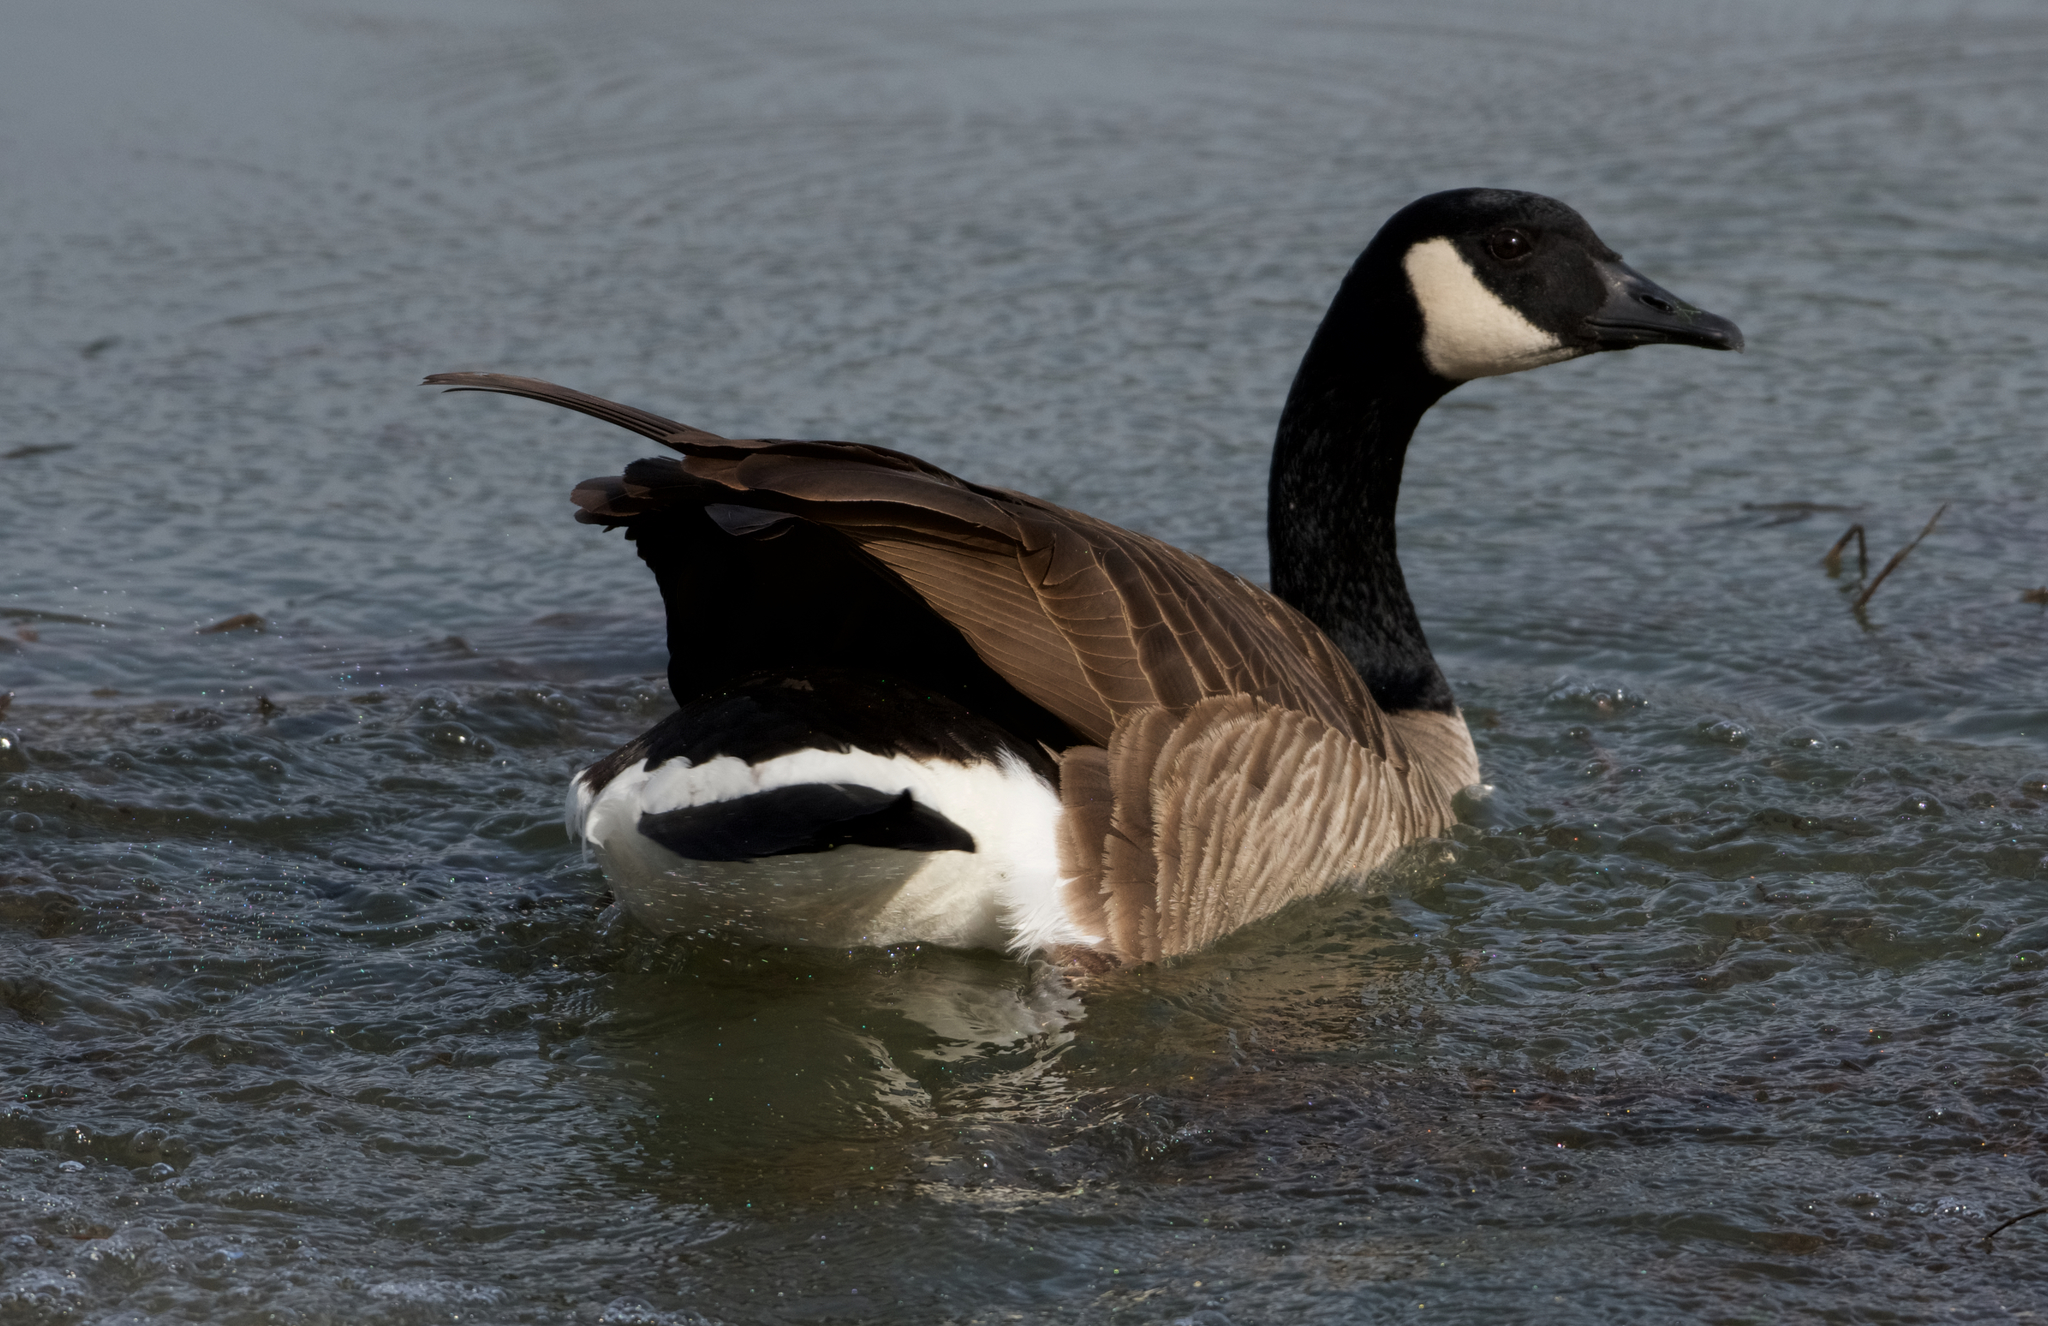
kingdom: Animalia
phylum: Chordata
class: Aves
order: Anseriformes
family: Anatidae
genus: Branta
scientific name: Branta canadensis
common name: Canada goose
